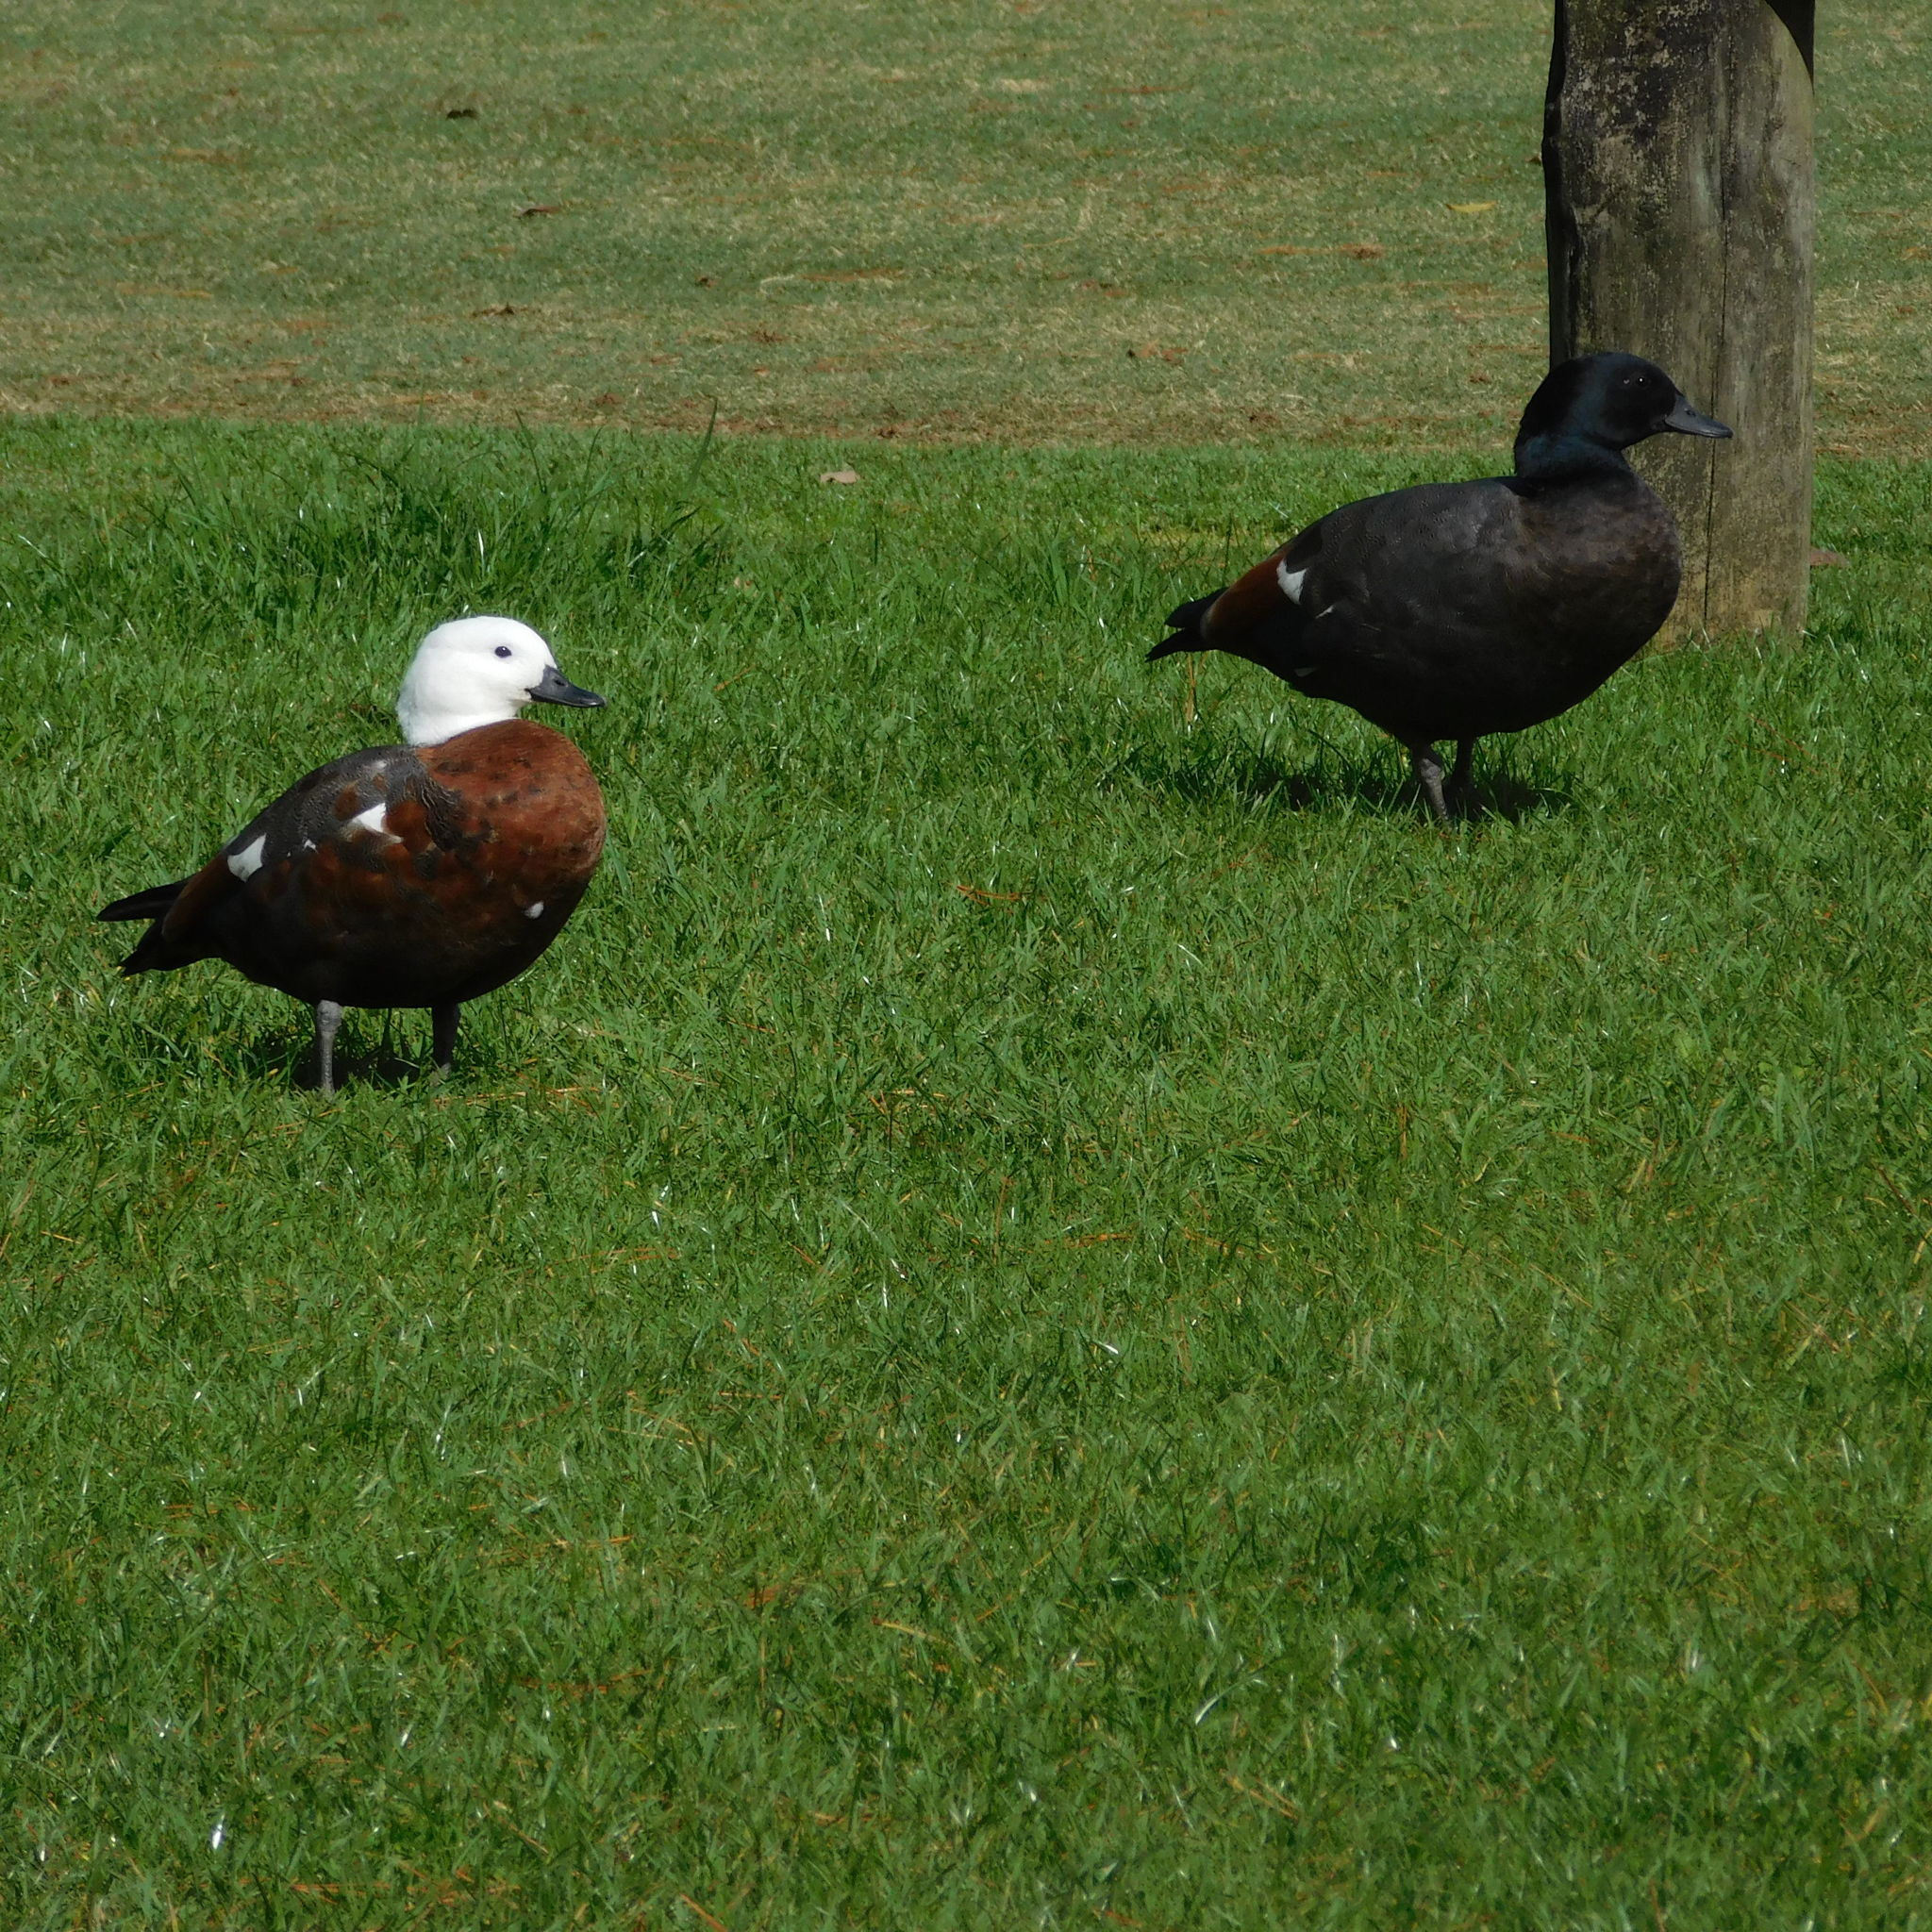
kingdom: Animalia
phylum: Chordata
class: Aves
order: Anseriformes
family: Anatidae
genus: Tadorna
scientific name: Tadorna variegata
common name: Paradise shelduck
